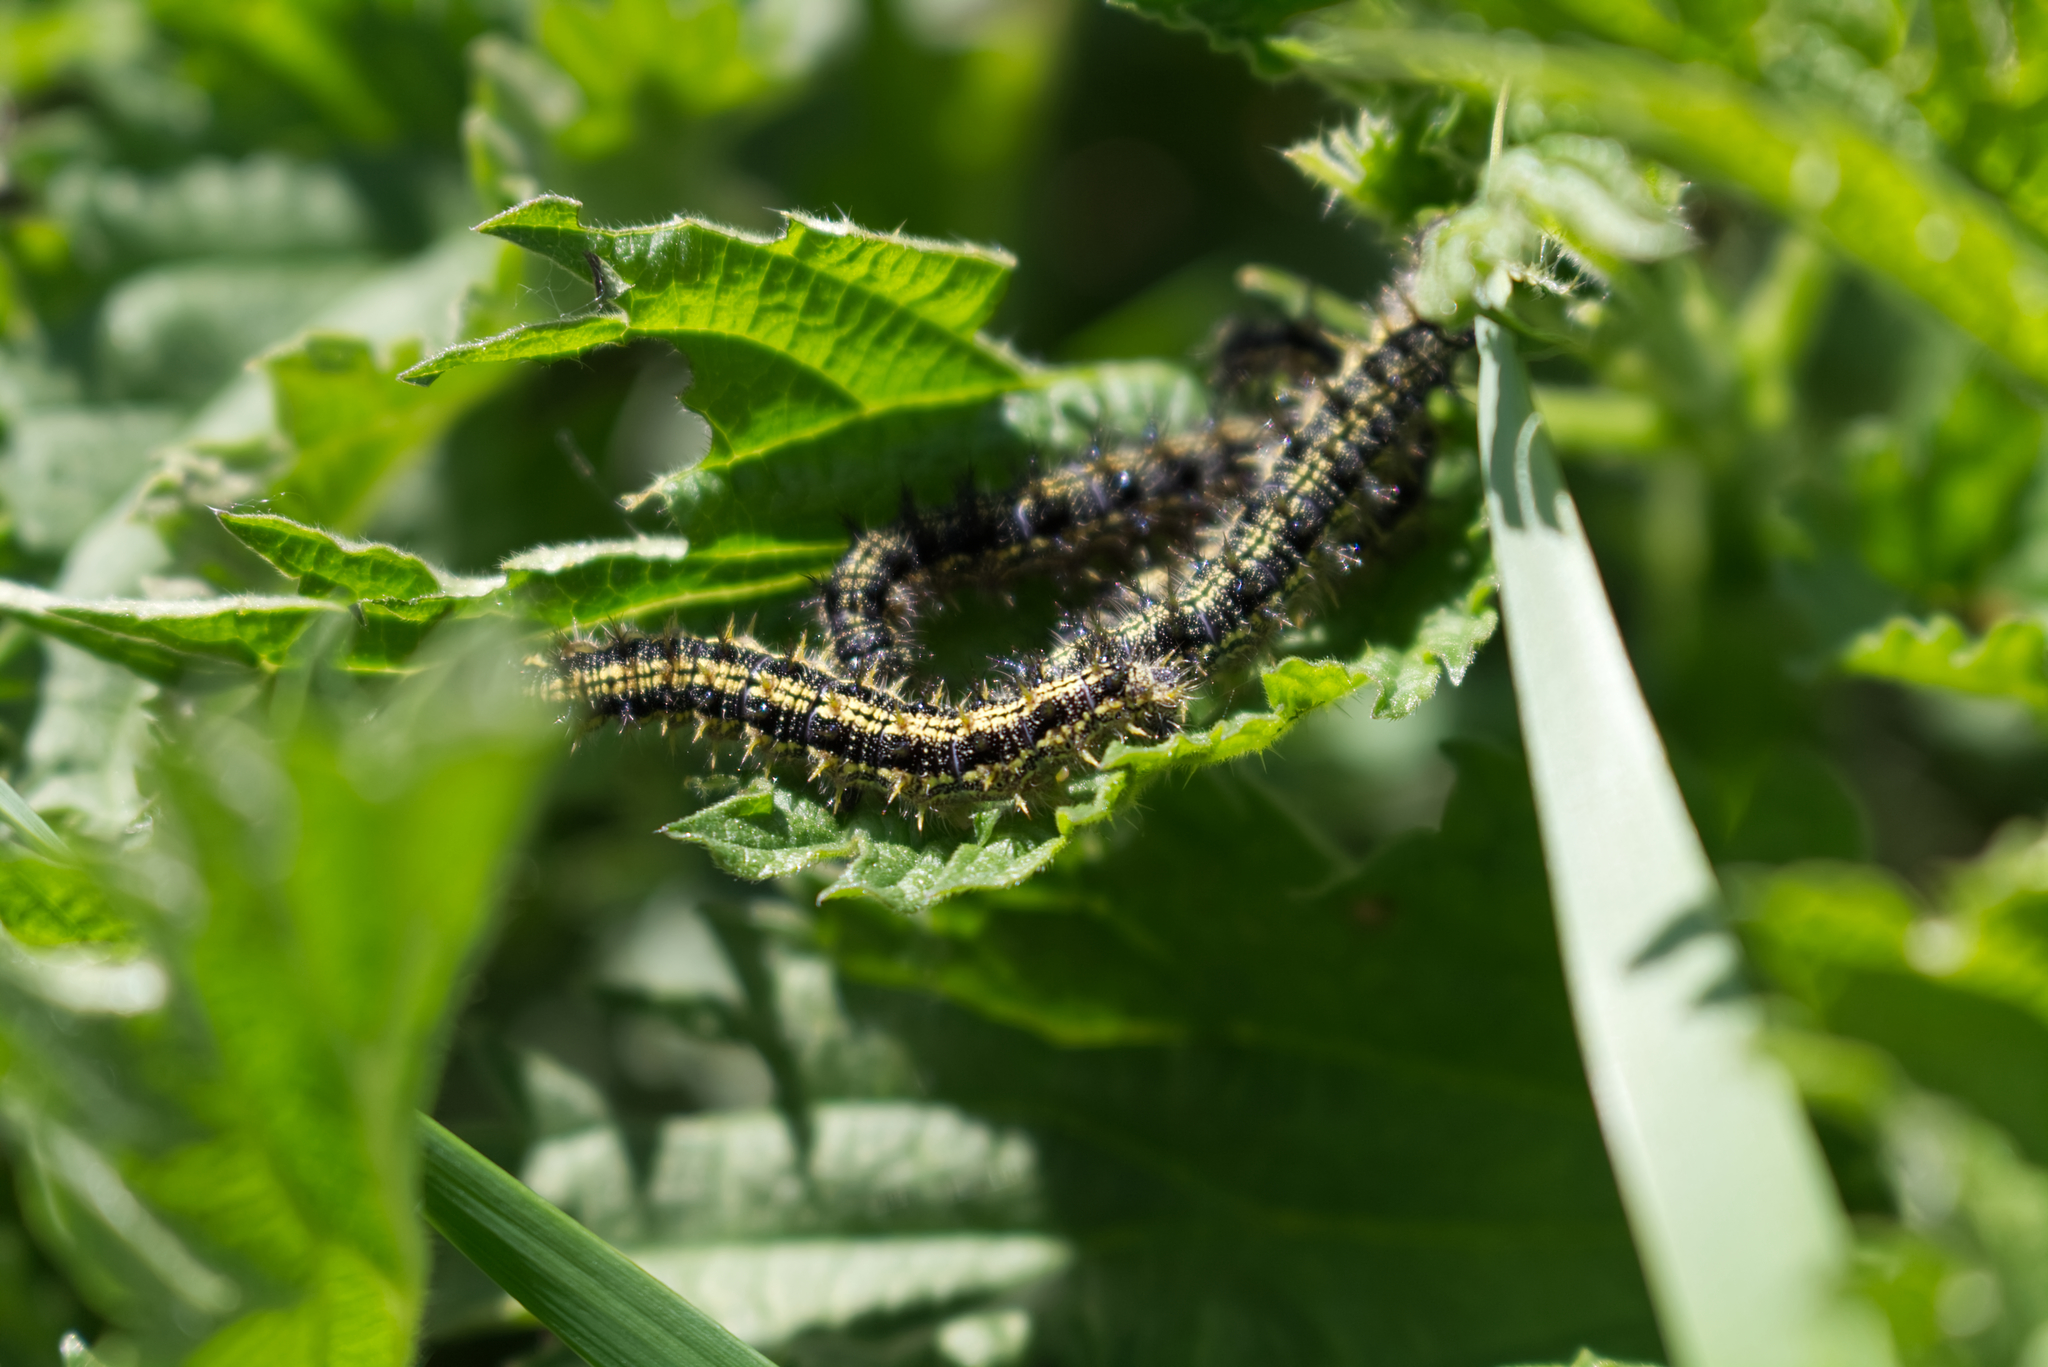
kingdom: Animalia
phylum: Arthropoda
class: Insecta
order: Lepidoptera
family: Nymphalidae
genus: Aglais
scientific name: Aglais urticae
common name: Small tortoiseshell
